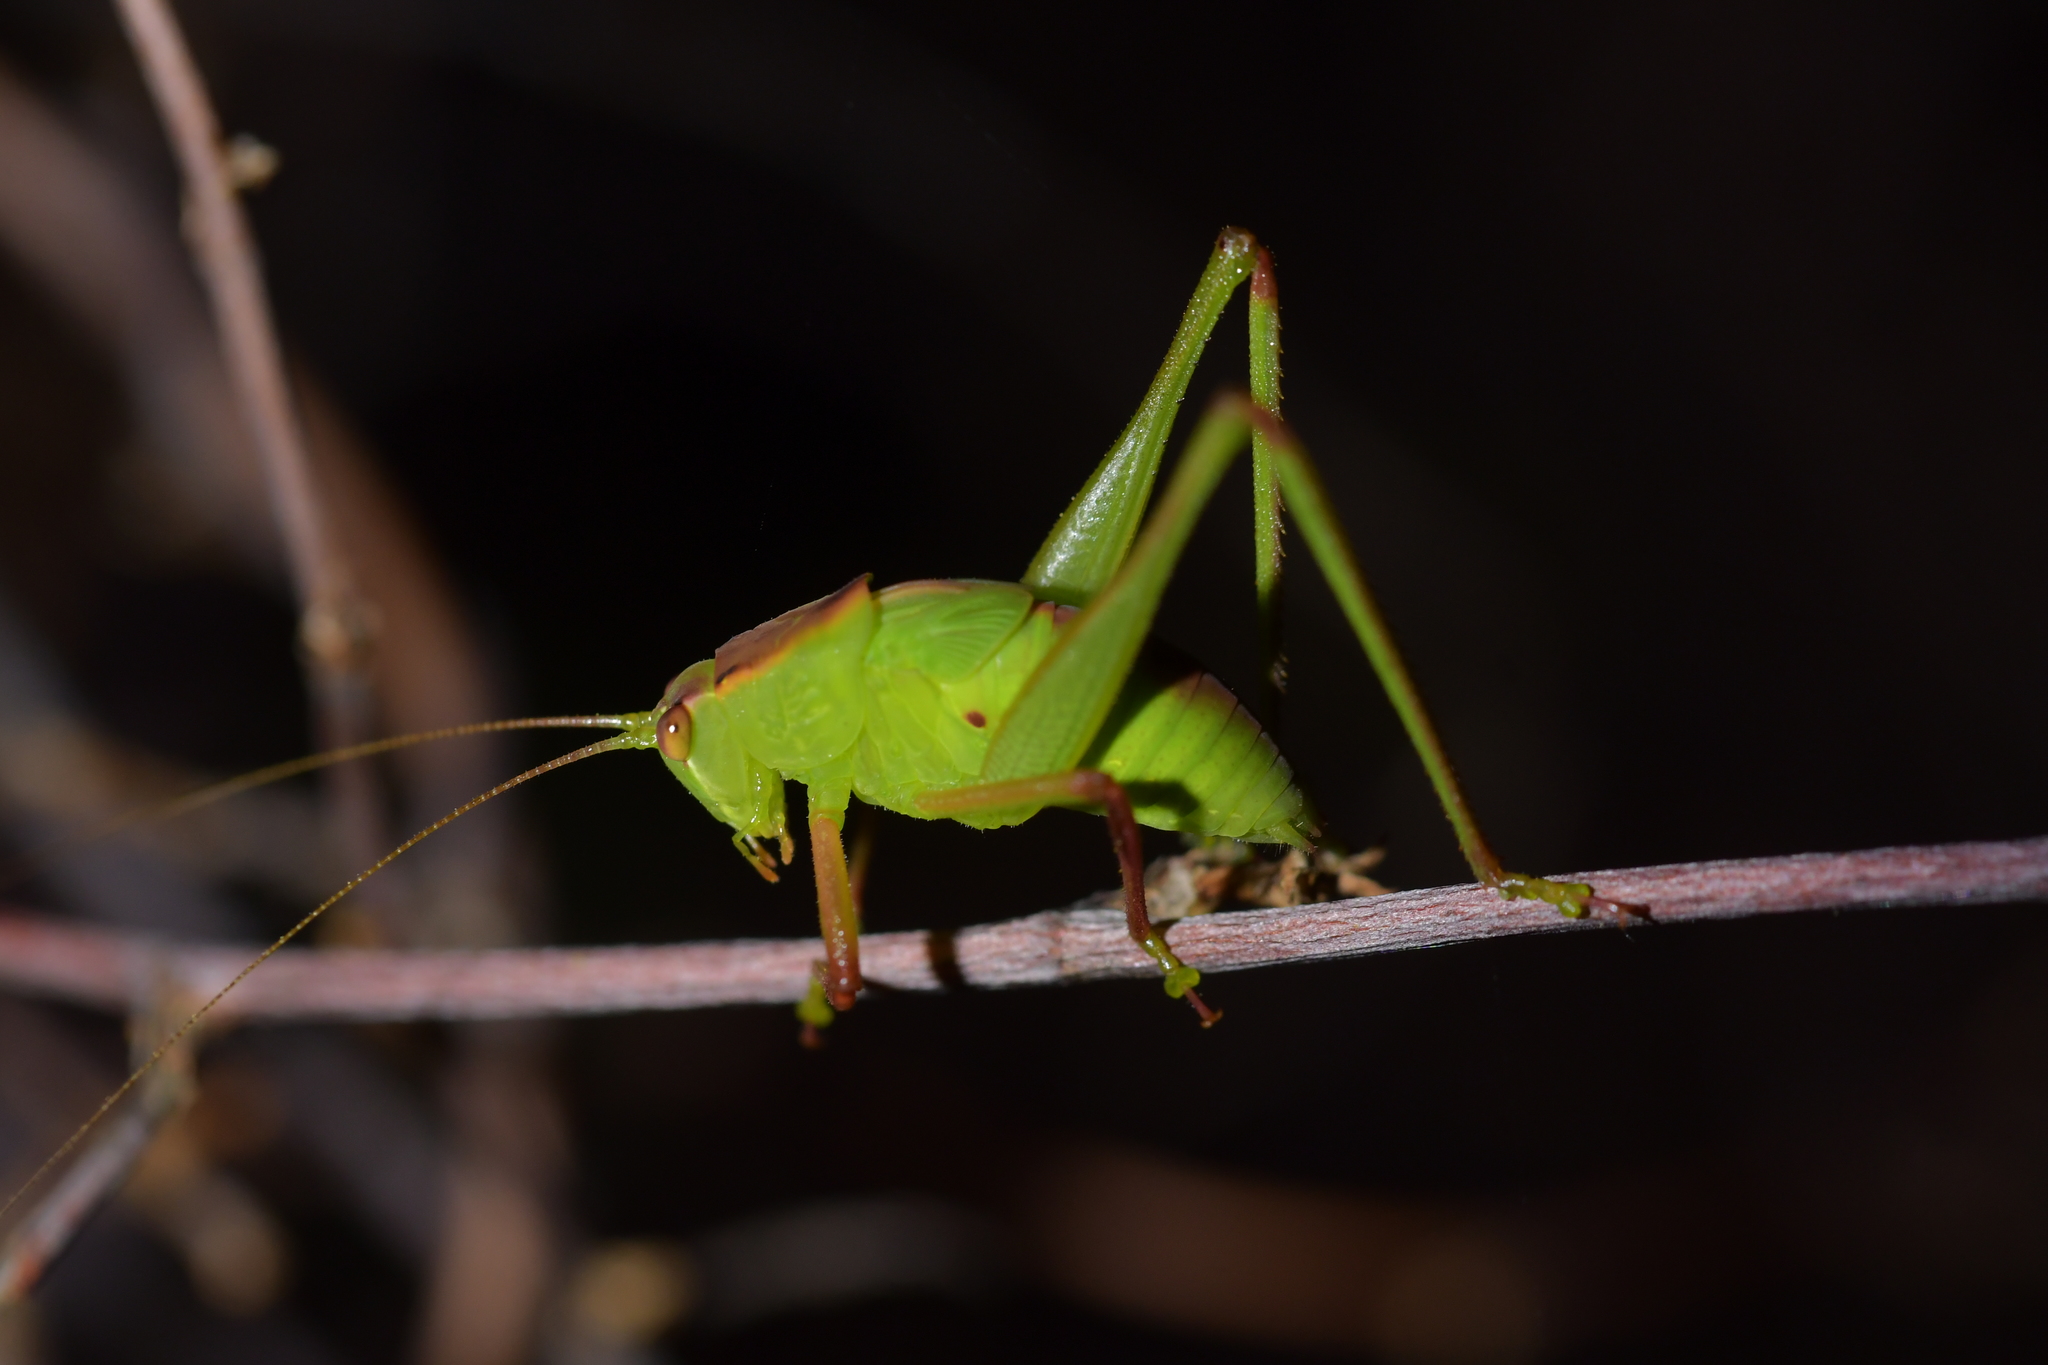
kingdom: Animalia
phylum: Arthropoda
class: Insecta
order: Orthoptera
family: Tettigoniidae
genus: Caedicia
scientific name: Caedicia simplex
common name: Common garden katydid
